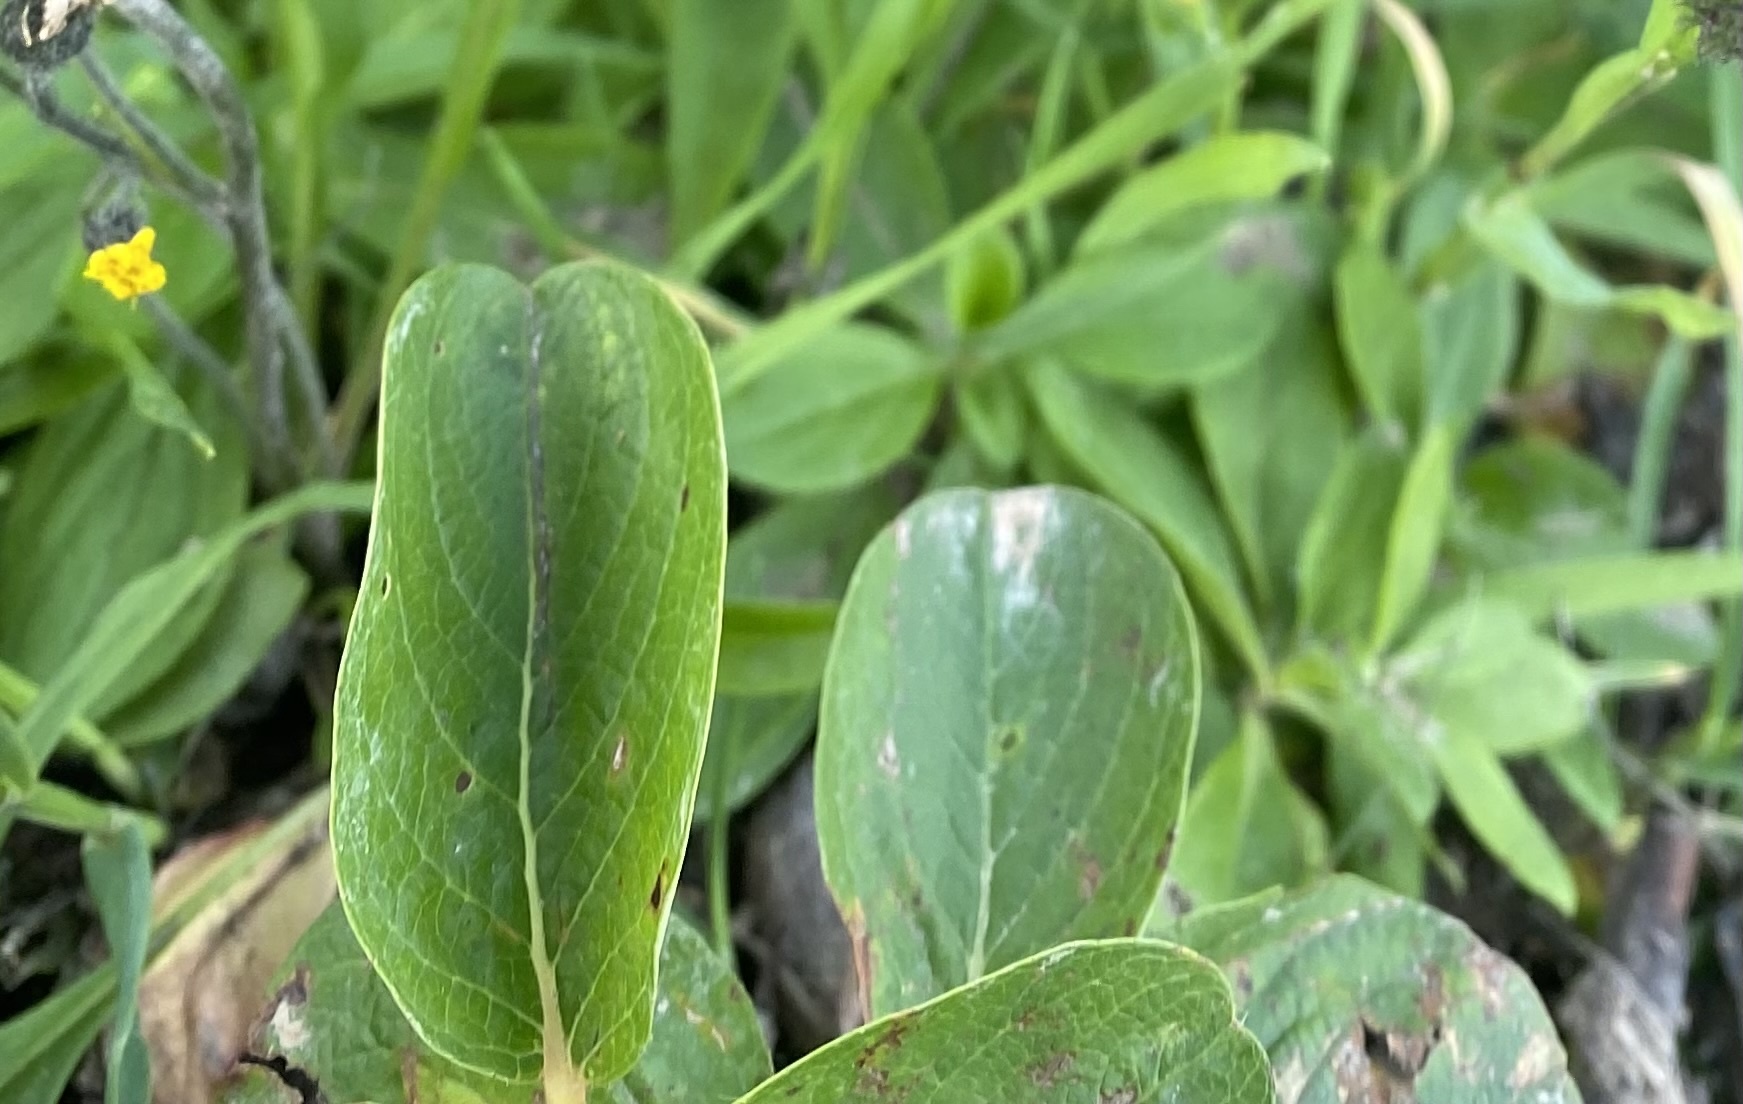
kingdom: Plantae
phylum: Tracheophyta
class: Magnoliopsida
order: Malpighiales
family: Salicaceae
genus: Salix
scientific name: Salix arctica
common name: Arctic willow
